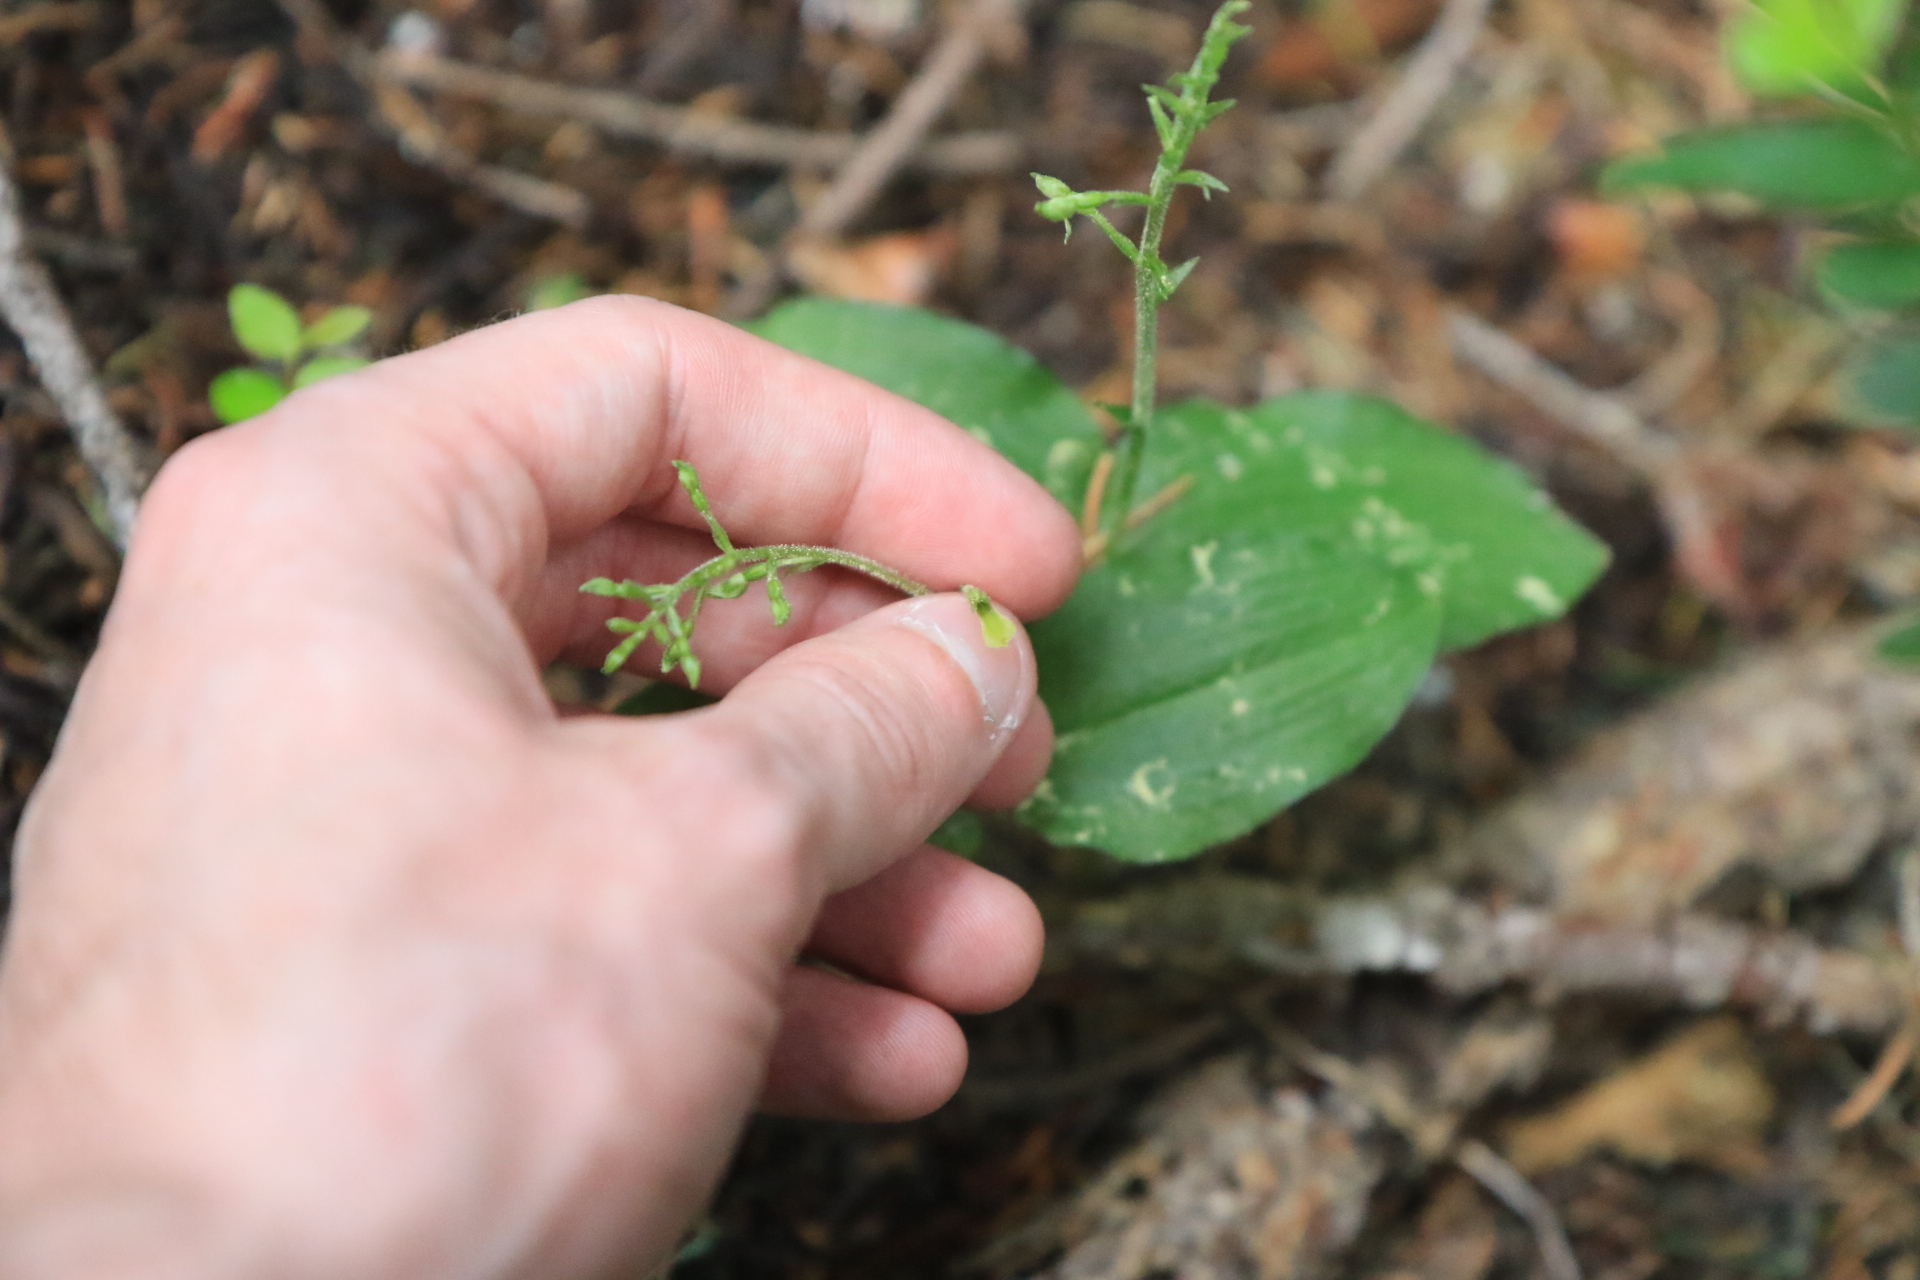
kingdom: Plantae
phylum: Tracheophyta
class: Liliopsida
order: Asparagales
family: Orchidaceae
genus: Neottia
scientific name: Neottia banksiana
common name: Northwestern twayblade
